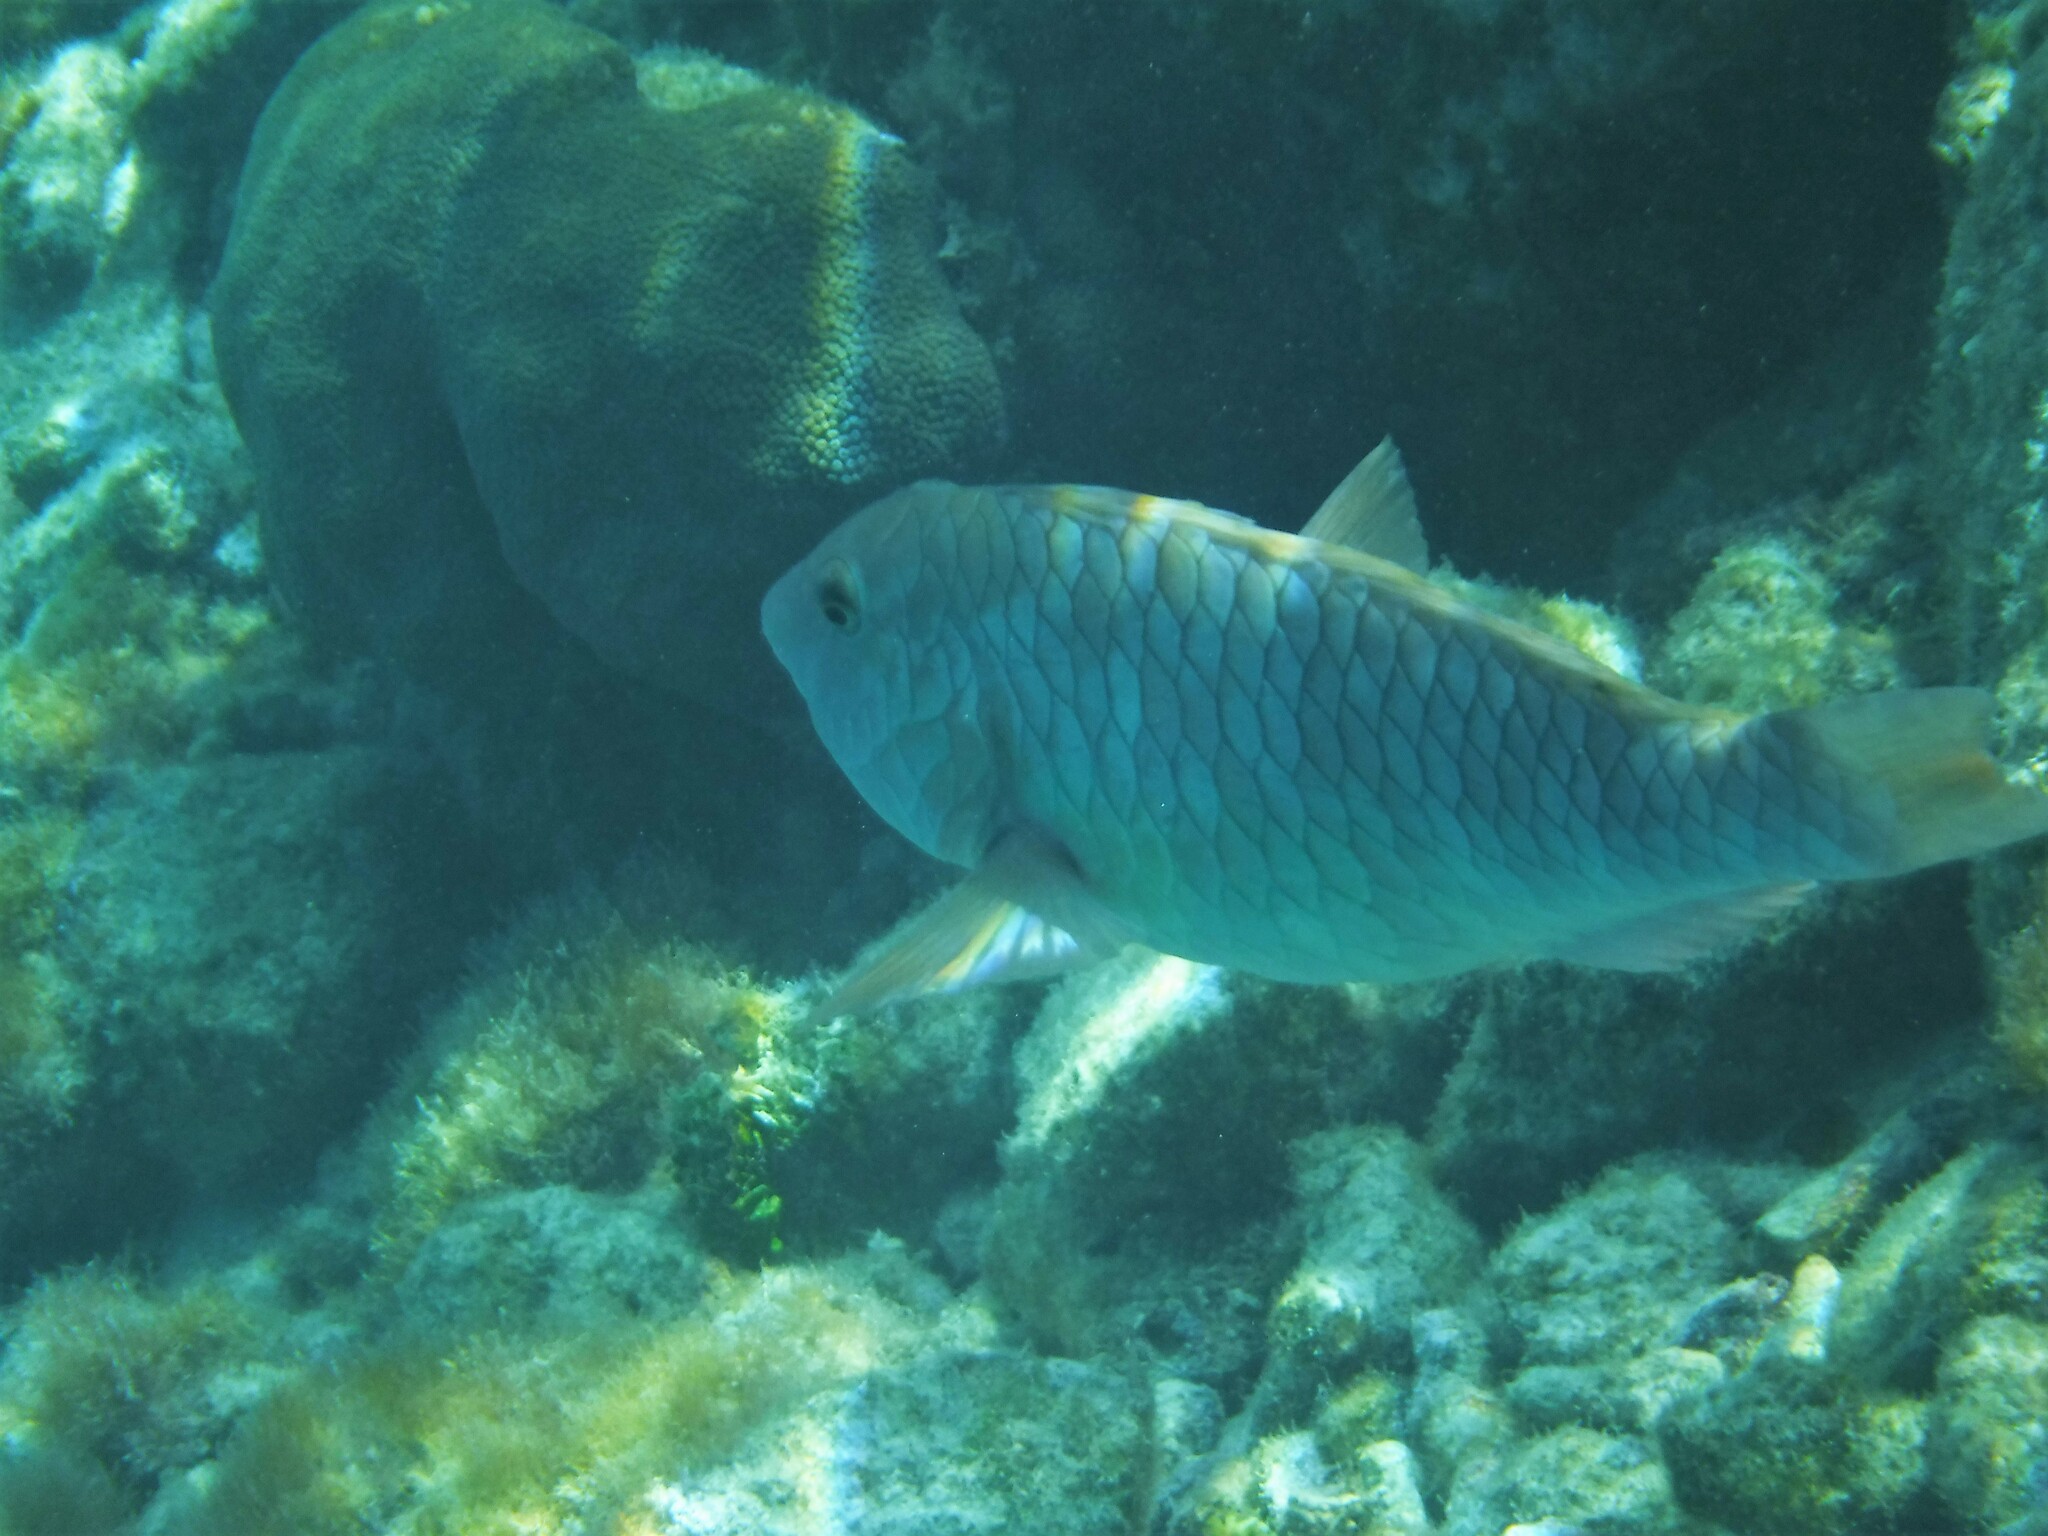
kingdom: Animalia
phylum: Chordata
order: Perciformes
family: Scaridae
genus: Sparisoma
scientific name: Sparisoma rubripinne
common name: Redfin parrotfish
